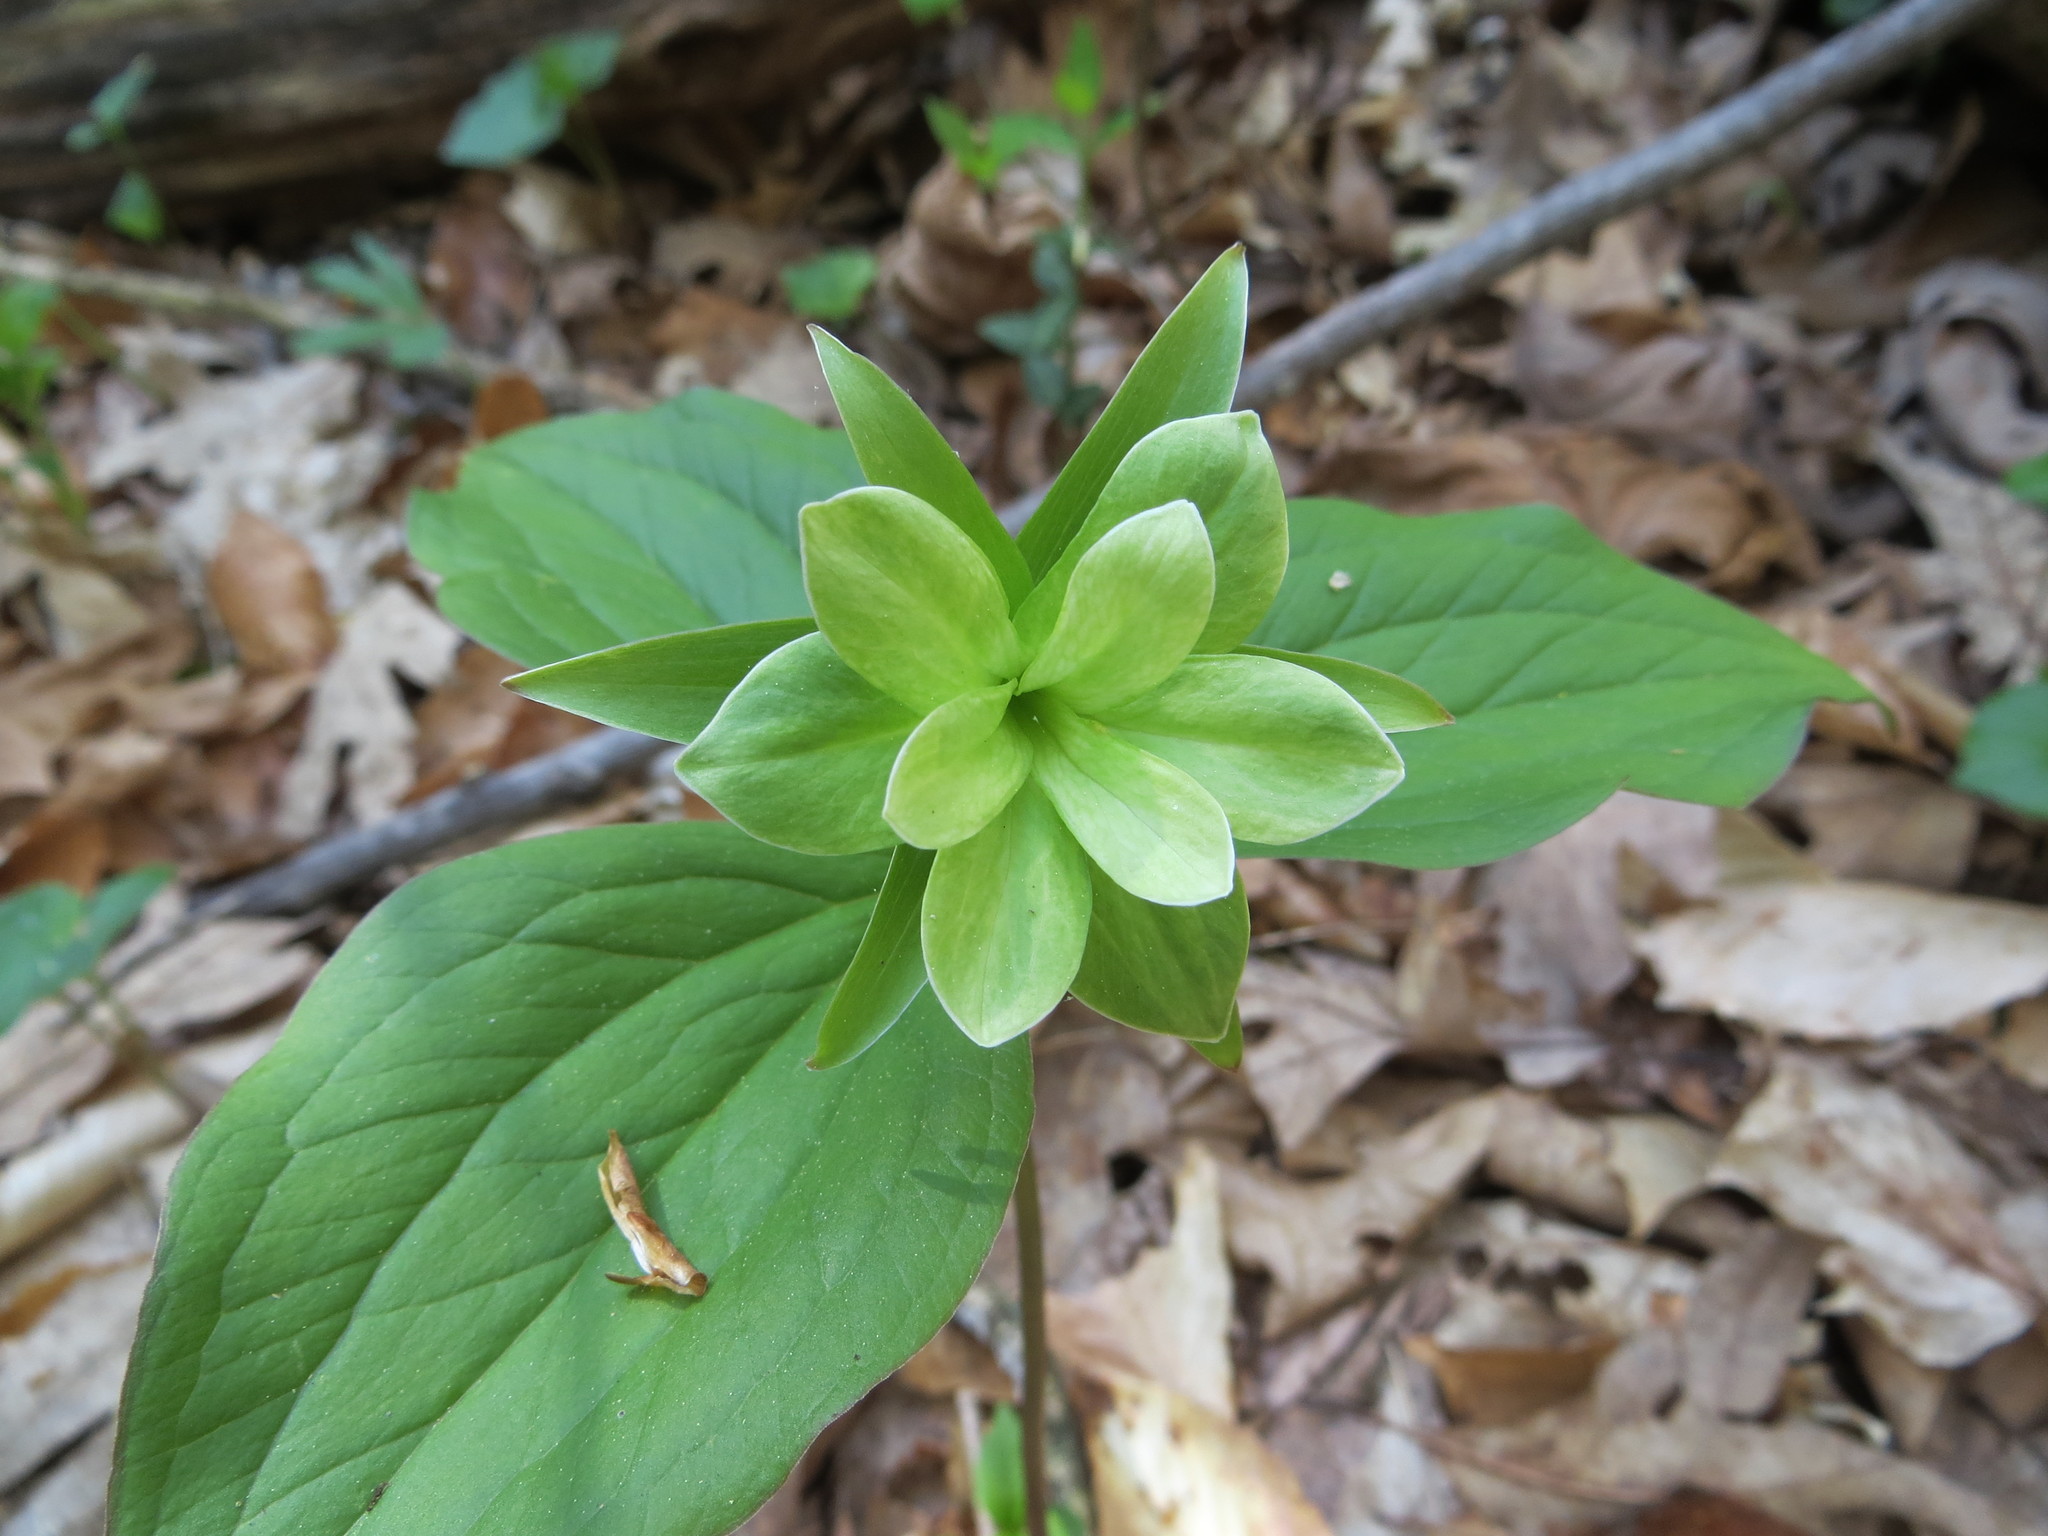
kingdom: Bacteria
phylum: Firmicutes
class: Bacilli
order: Acholeplasmatales
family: Acholeplasmataceae
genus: Phytoplasma
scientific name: Phytoplasma
